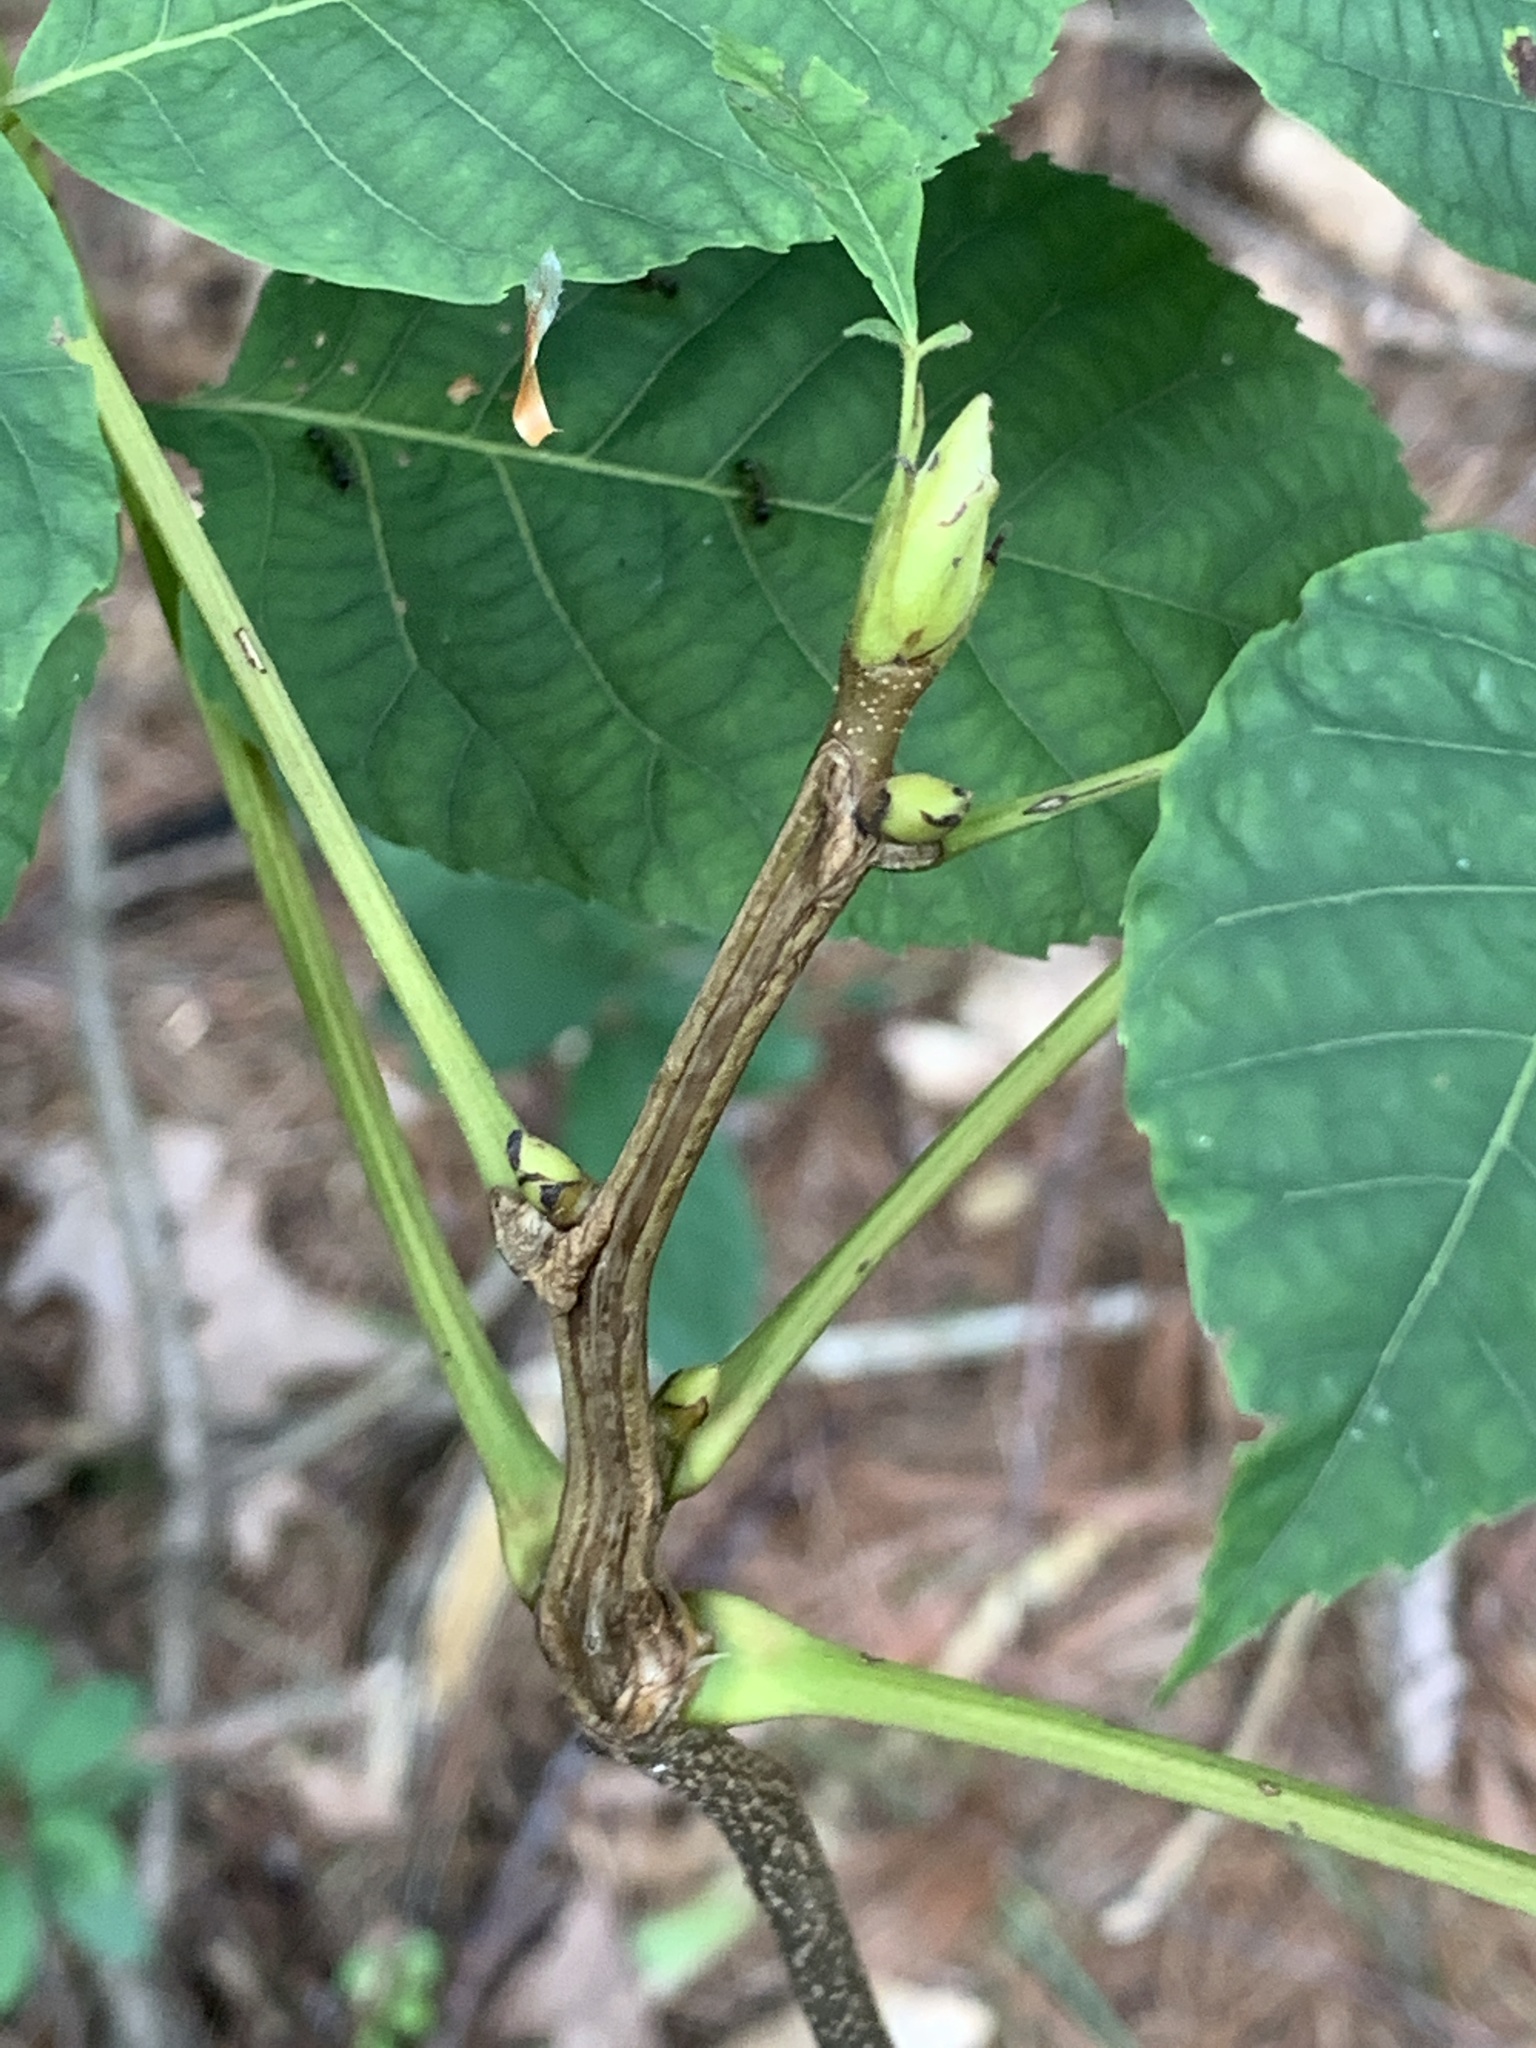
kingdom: Plantae
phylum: Tracheophyta
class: Magnoliopsida
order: Fagales
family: Juglandaceae
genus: Carya
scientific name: Carya ovata
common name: Shagbark hickory
